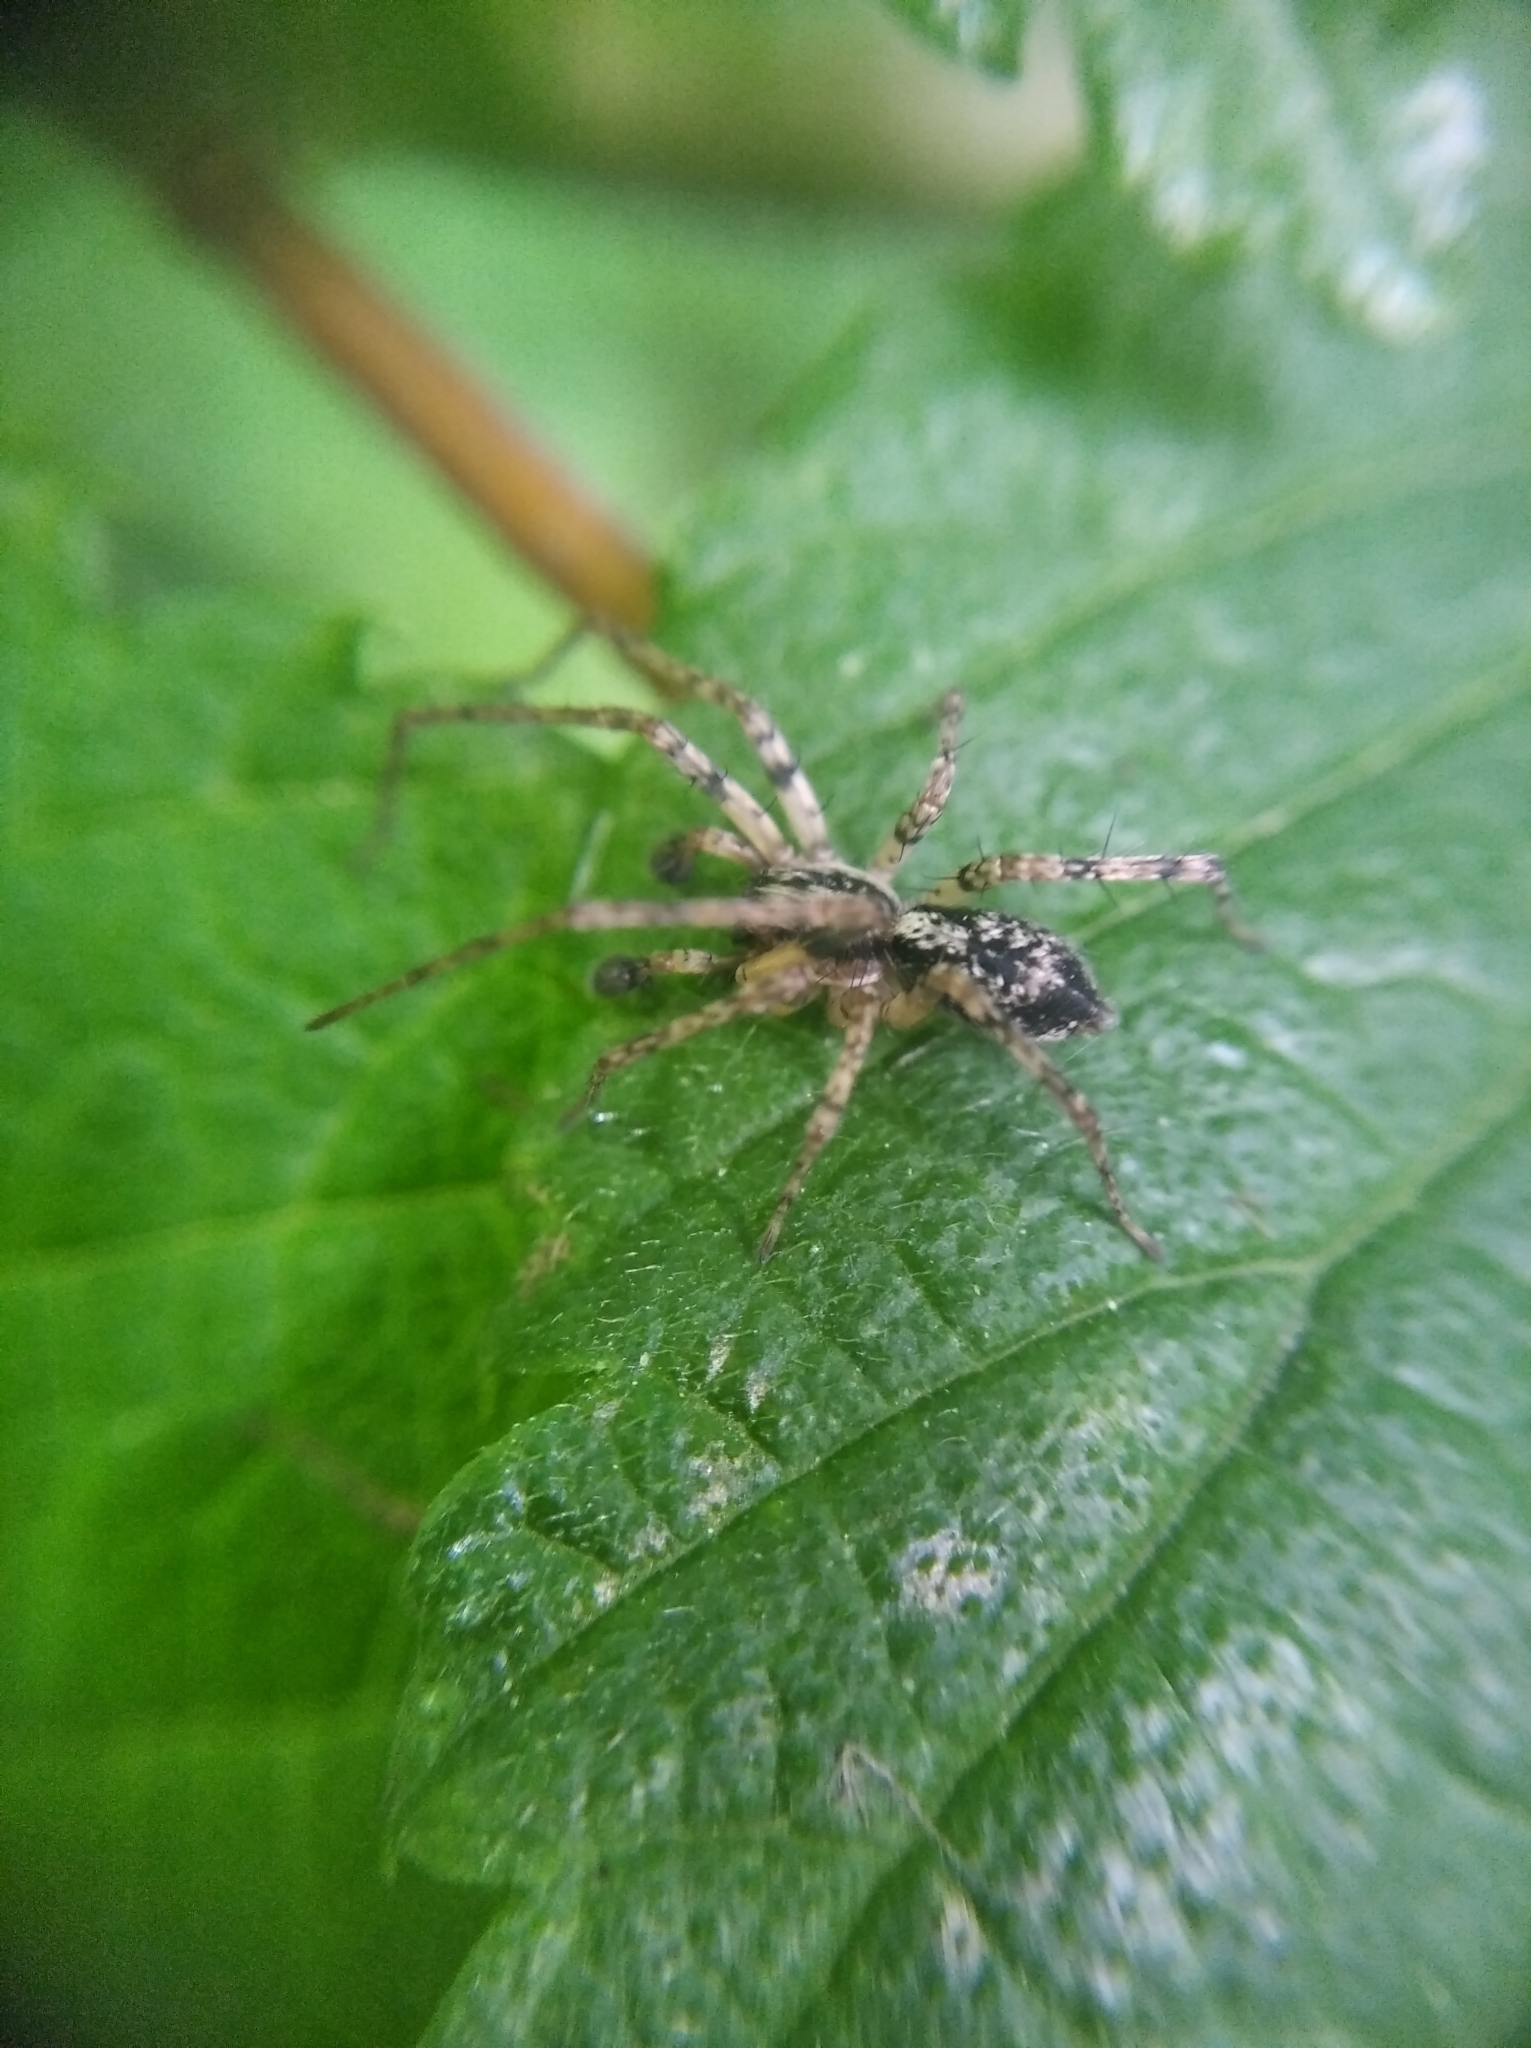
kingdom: Animalia
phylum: Arthropoda
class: Arachnida
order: Araneae
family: Anyphaenidae
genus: Anyphaena
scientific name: Anyphaena accentuata
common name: Buzzing spider
